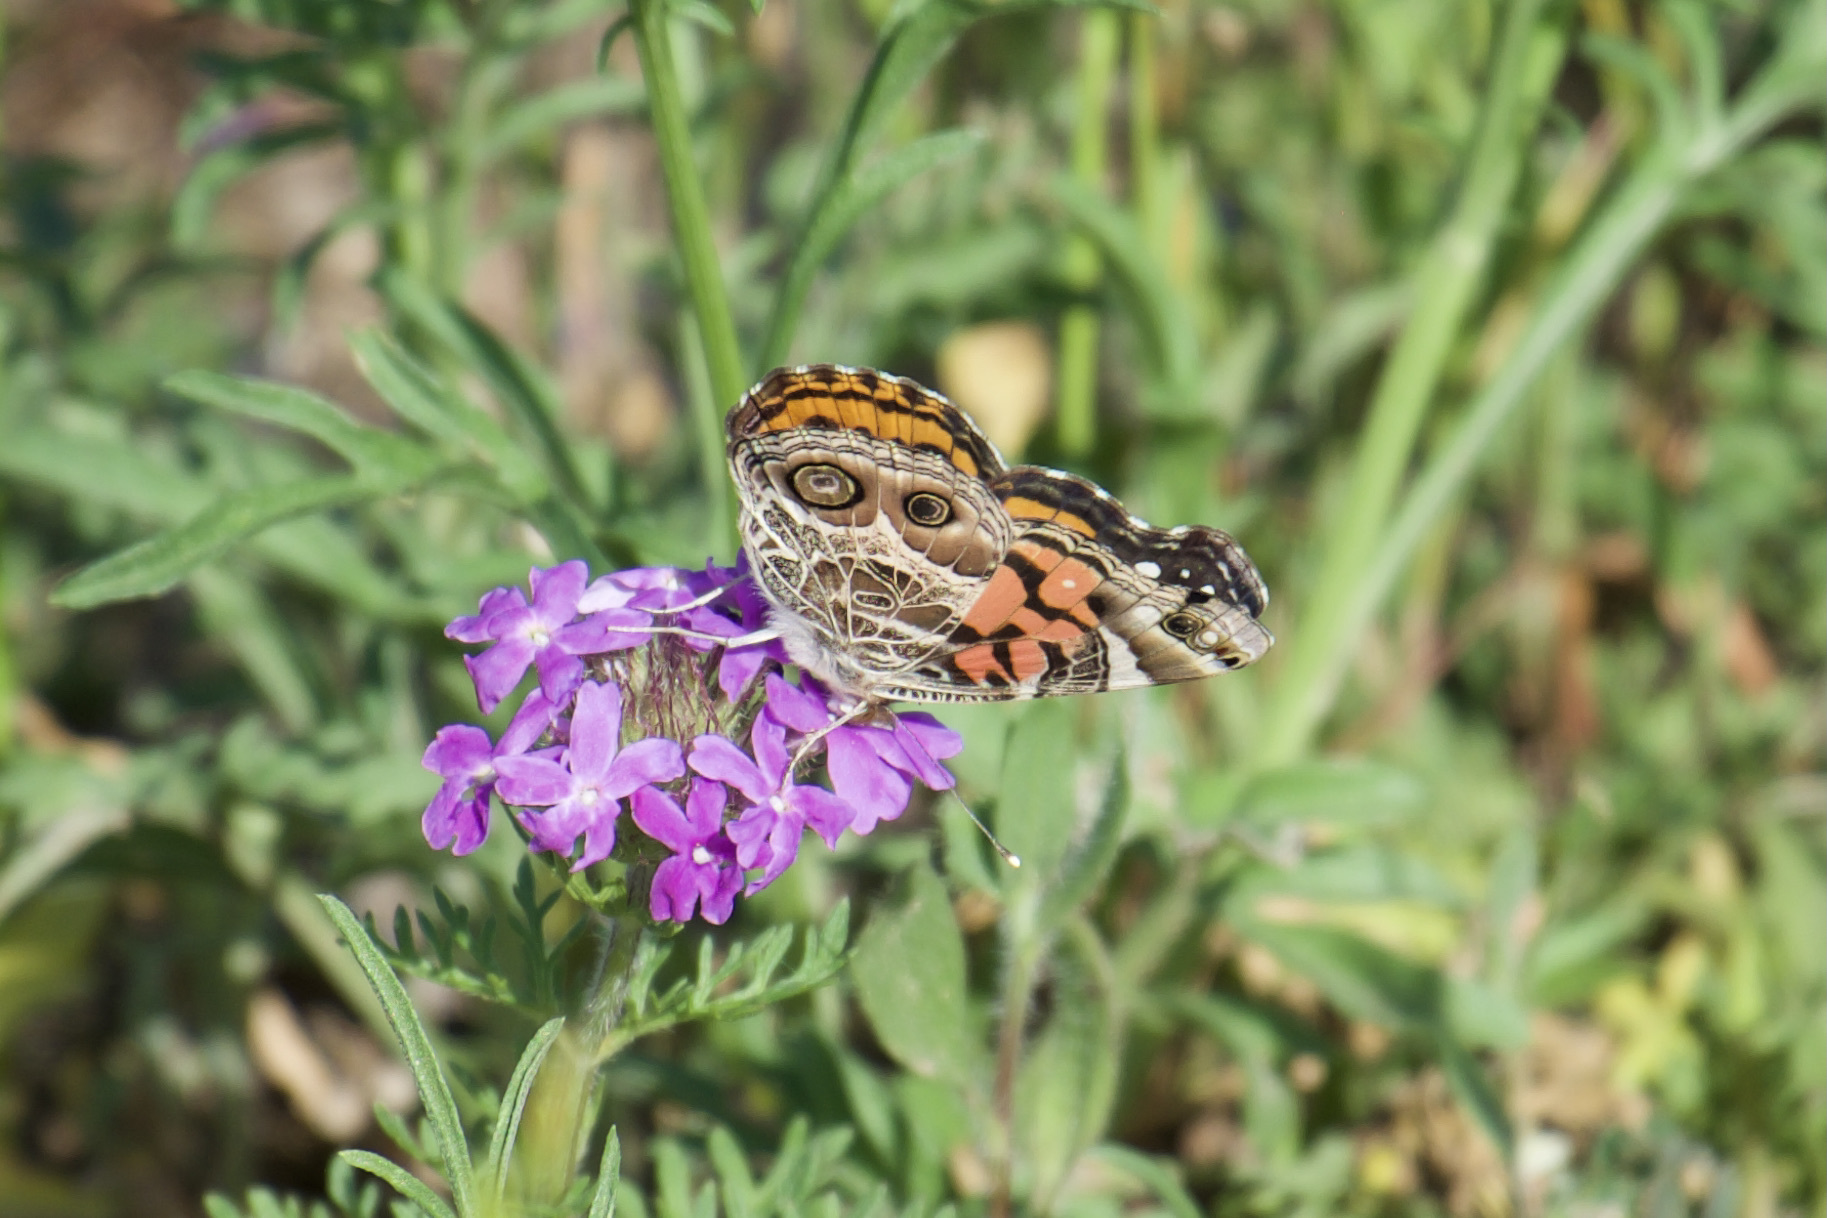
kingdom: Animalia
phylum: Arthropoda
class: Insecta
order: Lepidoptera
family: Nymphalidae
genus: Vanessa
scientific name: Vanessa virginiensis
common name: American lady
